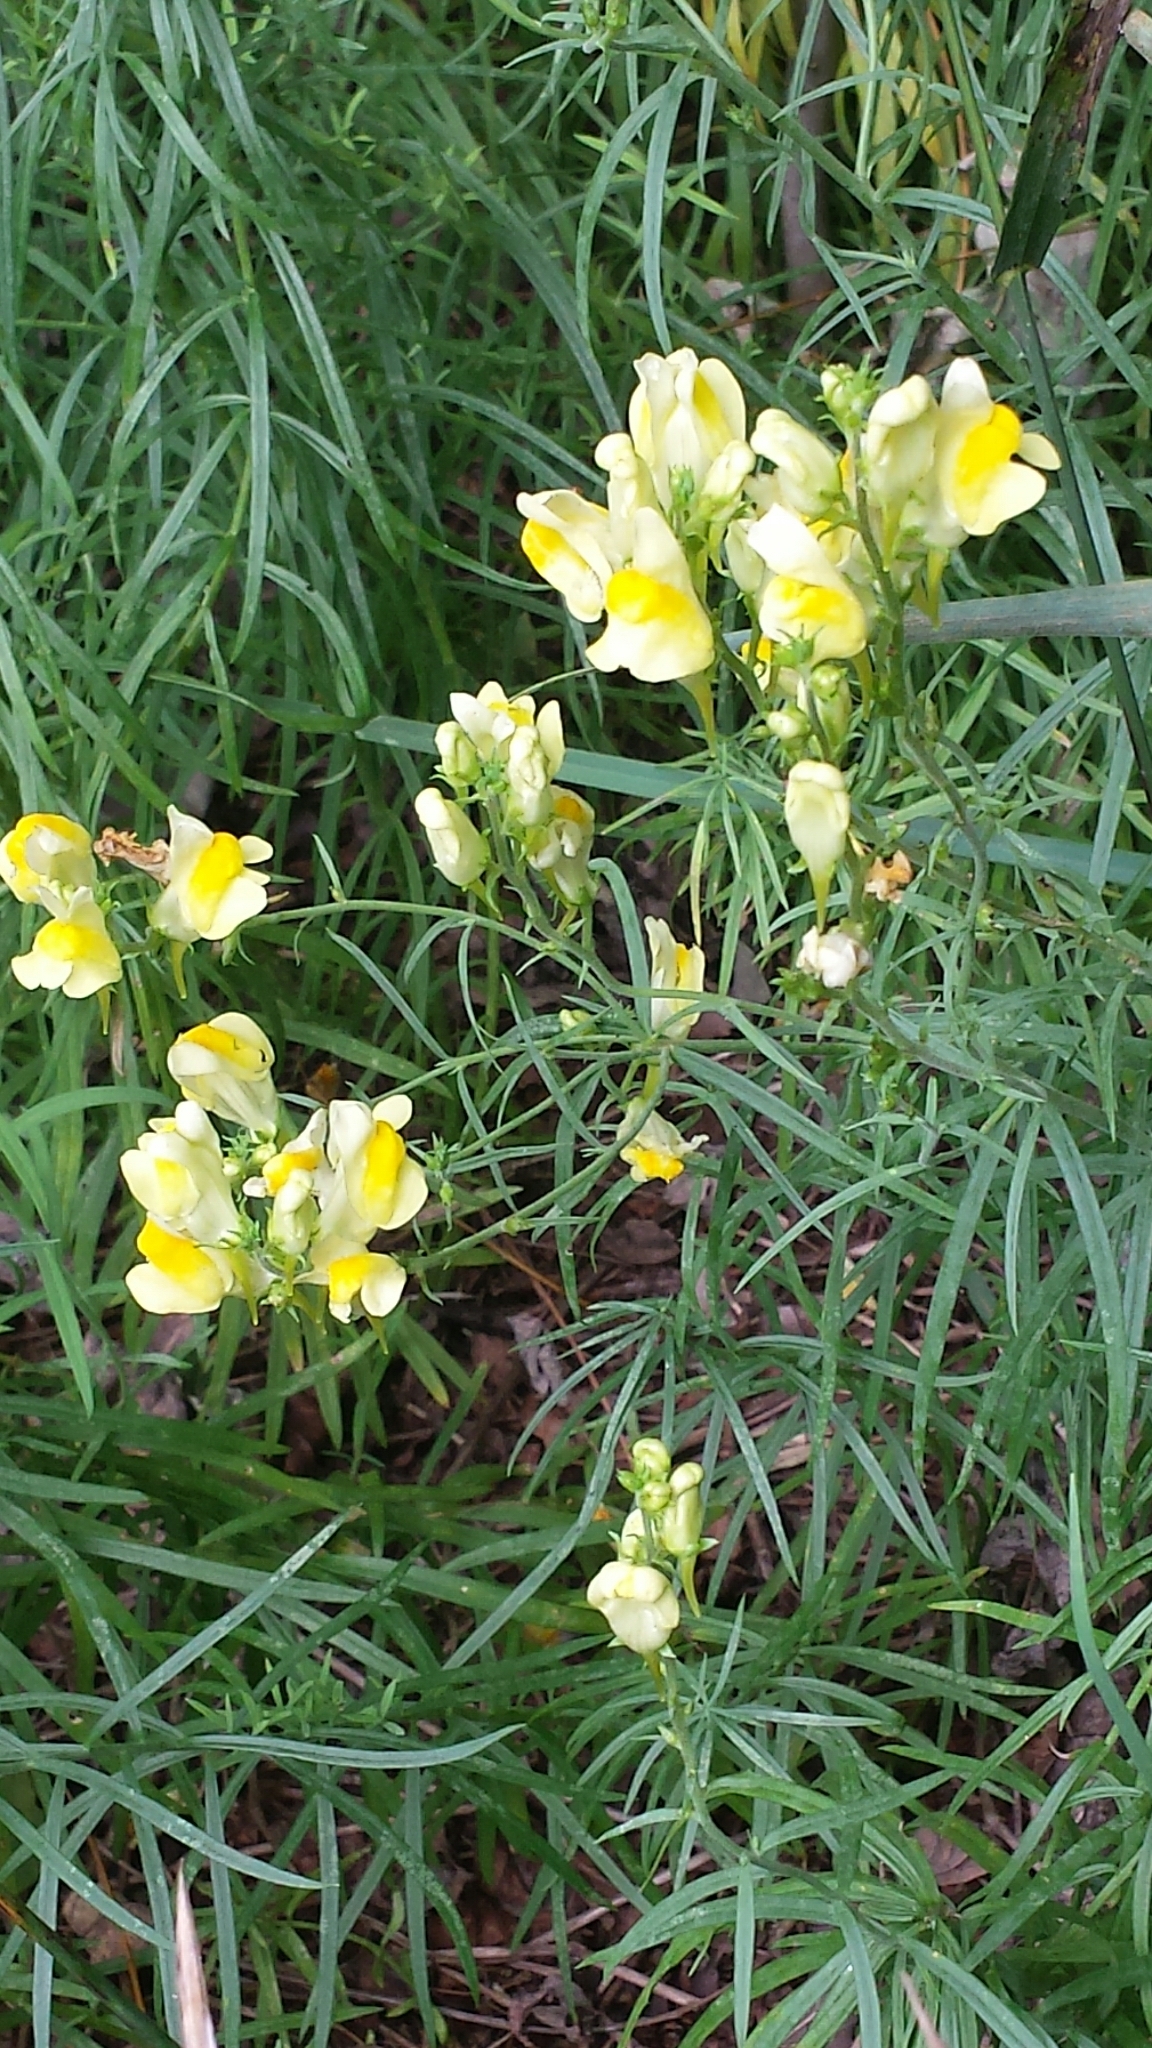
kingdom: Plantae
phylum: Tracheophyta
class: Magnoliopsida
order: Lamiales
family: Plantaginaceae
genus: Linaria
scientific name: Linaria vulgaris
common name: Butter and eggs
